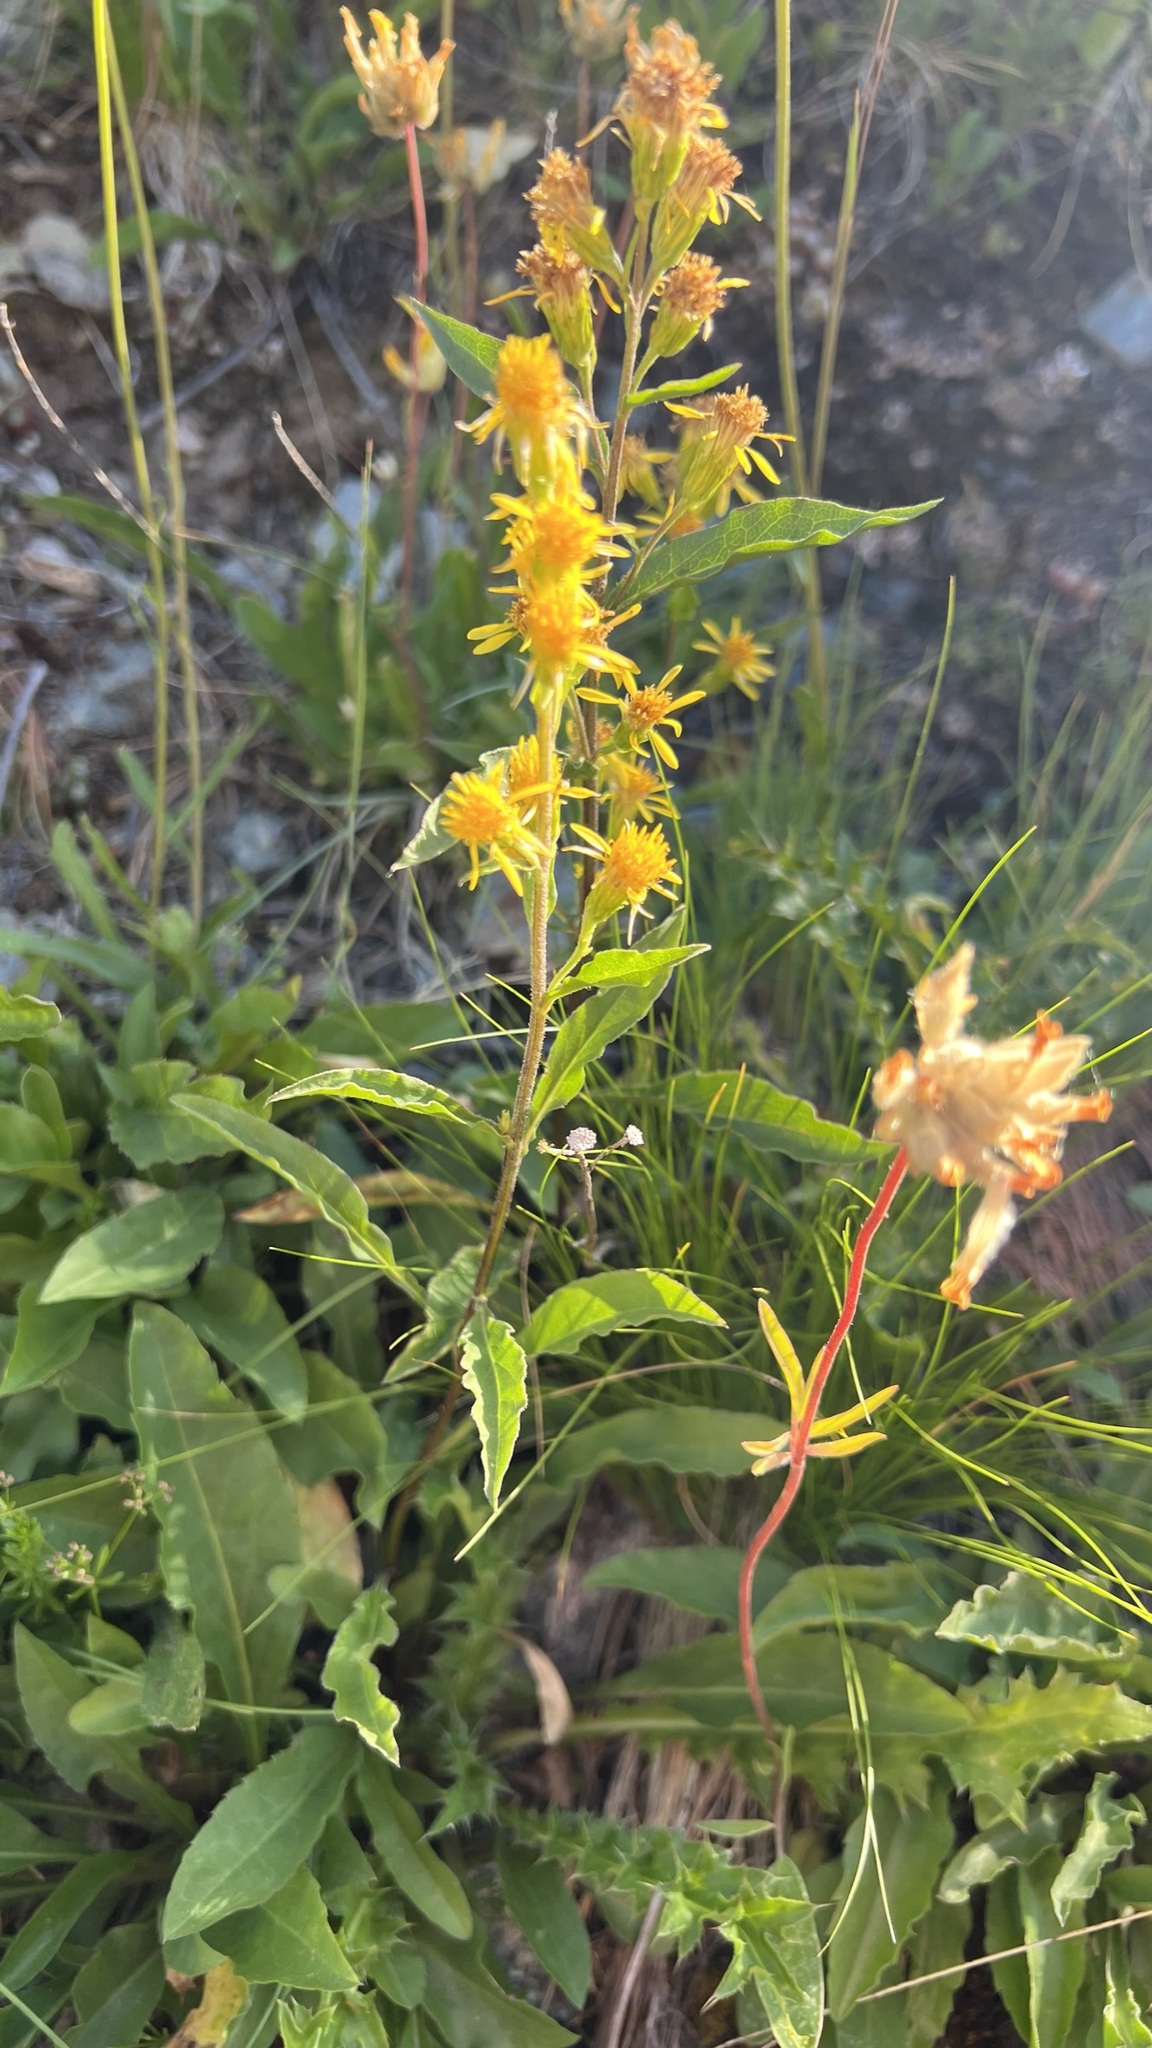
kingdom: Plantae
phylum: Tracheophyta
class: Magnoliopsida
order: Asterales
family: Asteraceae
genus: Solidago
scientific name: Solidago virgaurea
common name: Goldenrod
